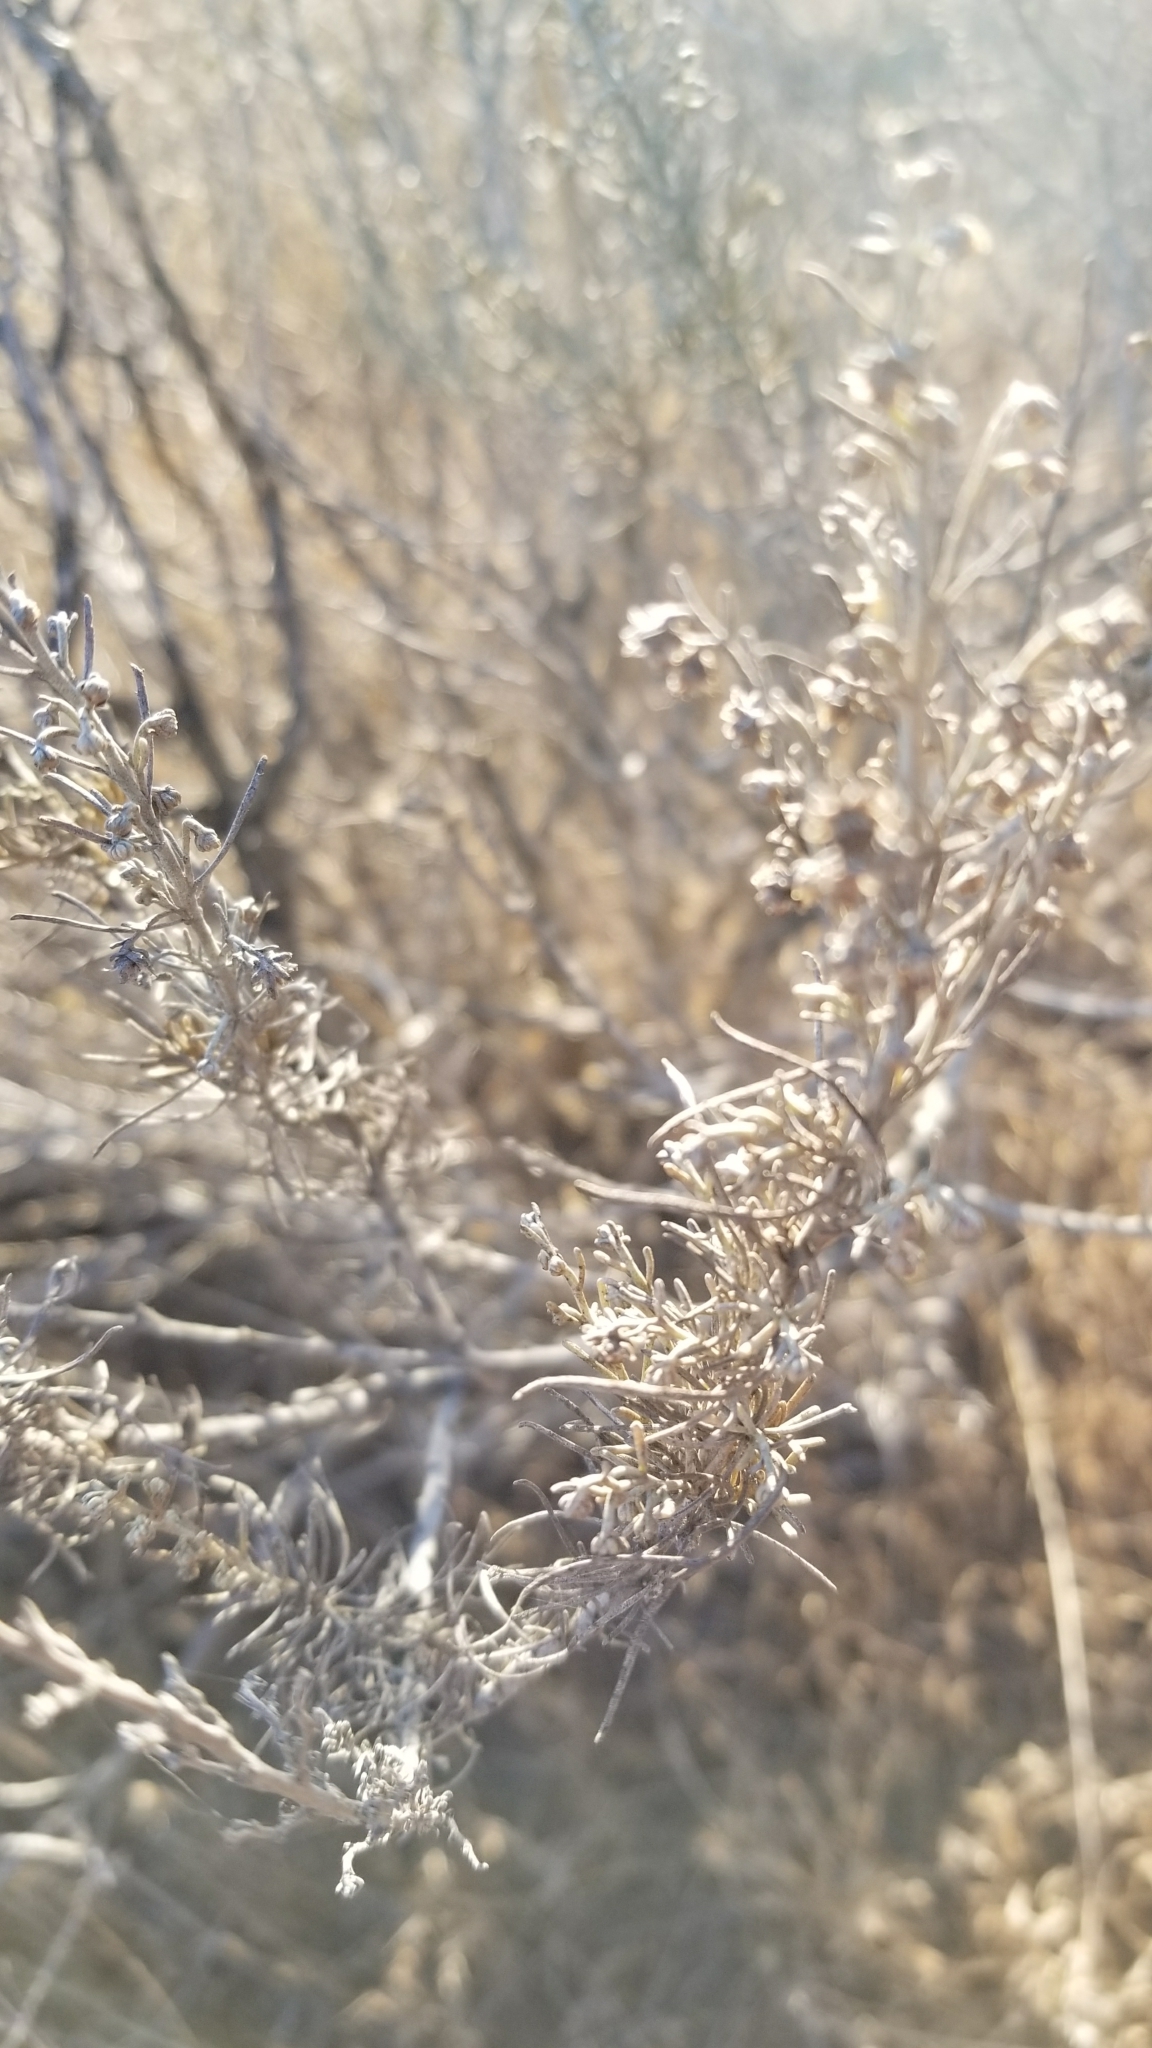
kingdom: Plantae
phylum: Tracheophyta
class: Magnoliopsida
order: Asterales
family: Asteraceae
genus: Artemisia
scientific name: Artemisia californica
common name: California sagebrush
